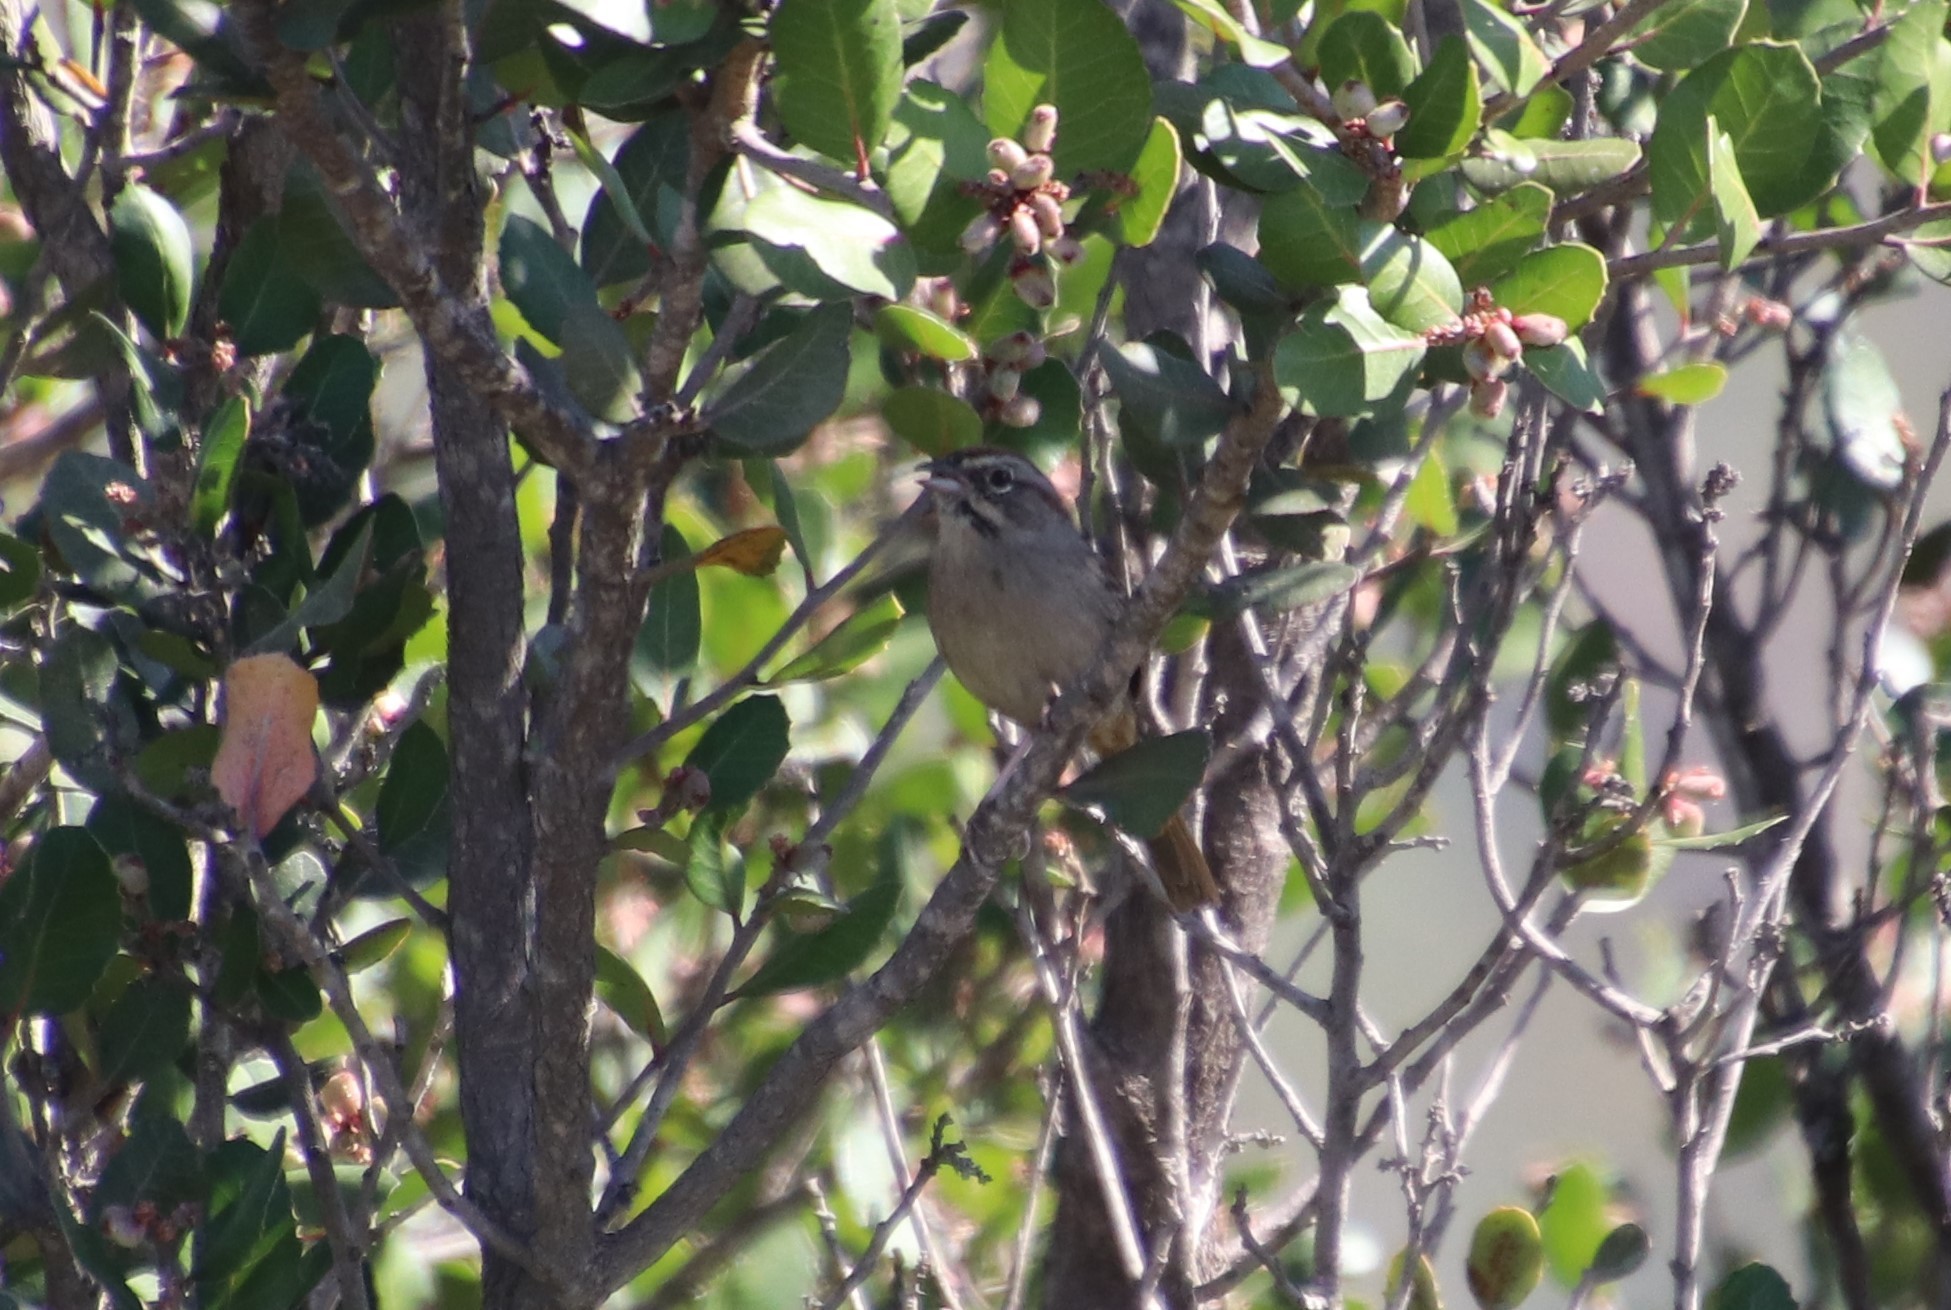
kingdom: Animalia
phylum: Chordata
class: Aves
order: Passeriformes
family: Passerellidae
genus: Aimophila
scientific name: Aimophila ruficeps
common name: Rufous-crowned sparrow
